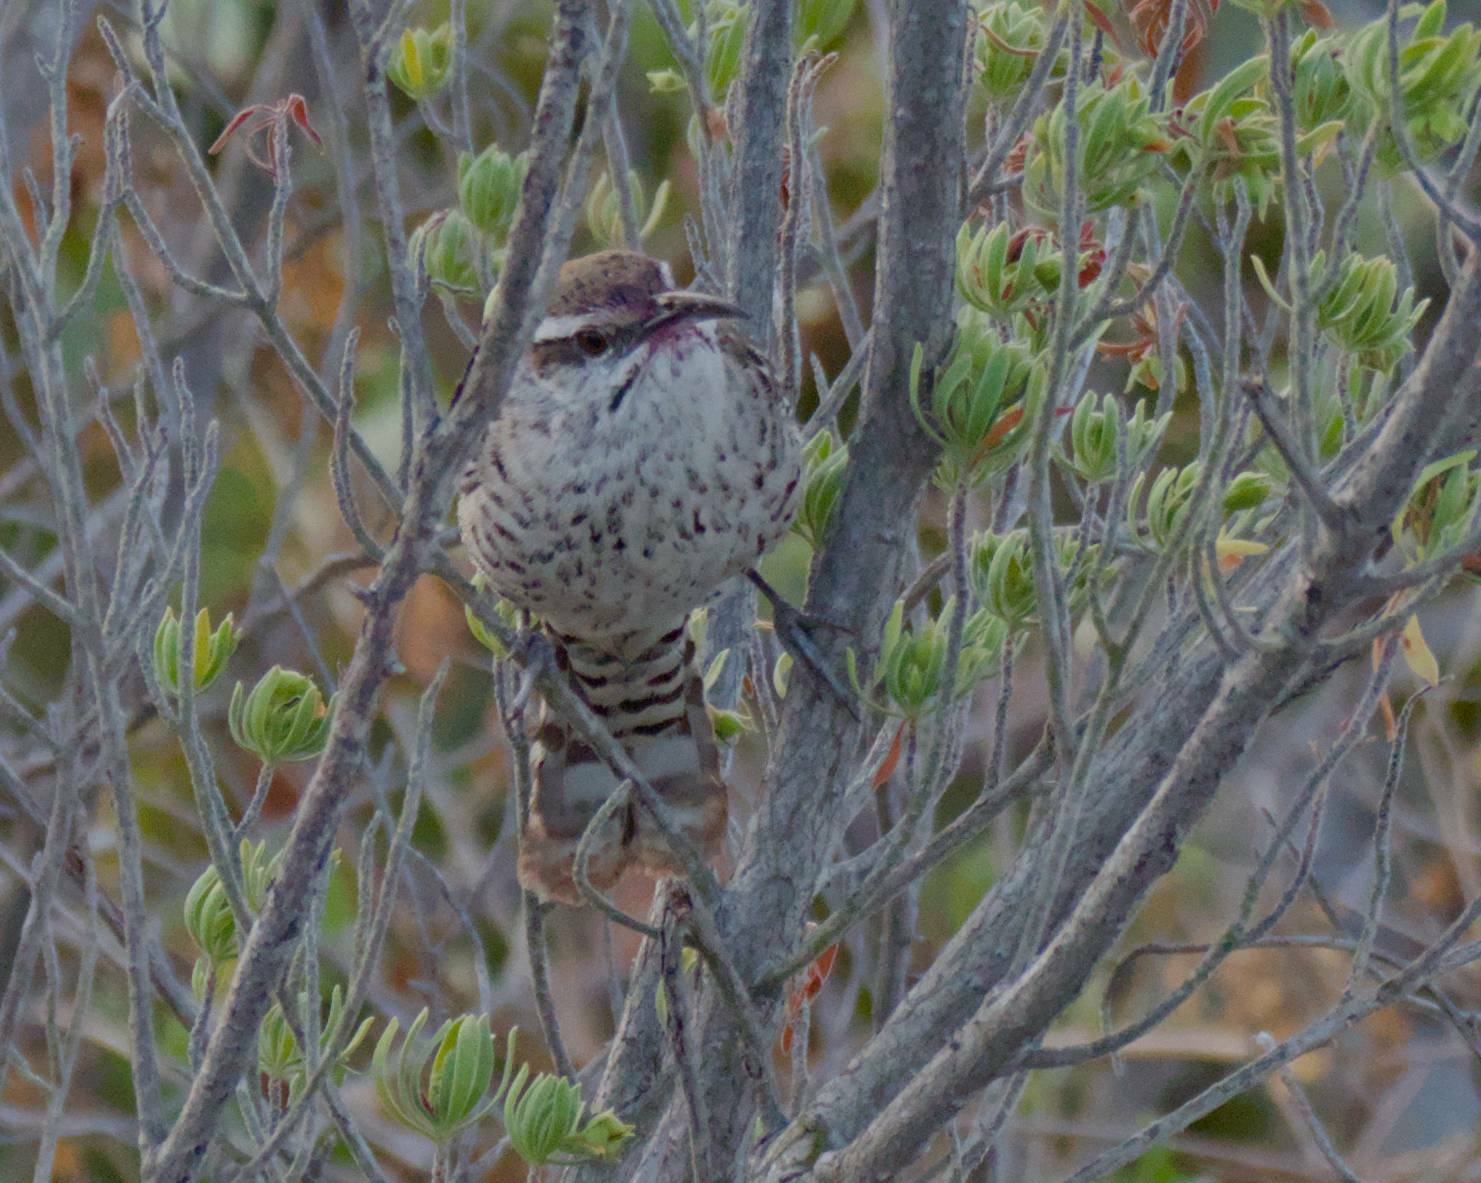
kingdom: Animalia
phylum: Chordata
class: Aves
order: Passeriformes
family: Troglodytidae
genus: Campylorhynchus
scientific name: Campylorhynchus yucatanicus
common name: Yucatan wren
